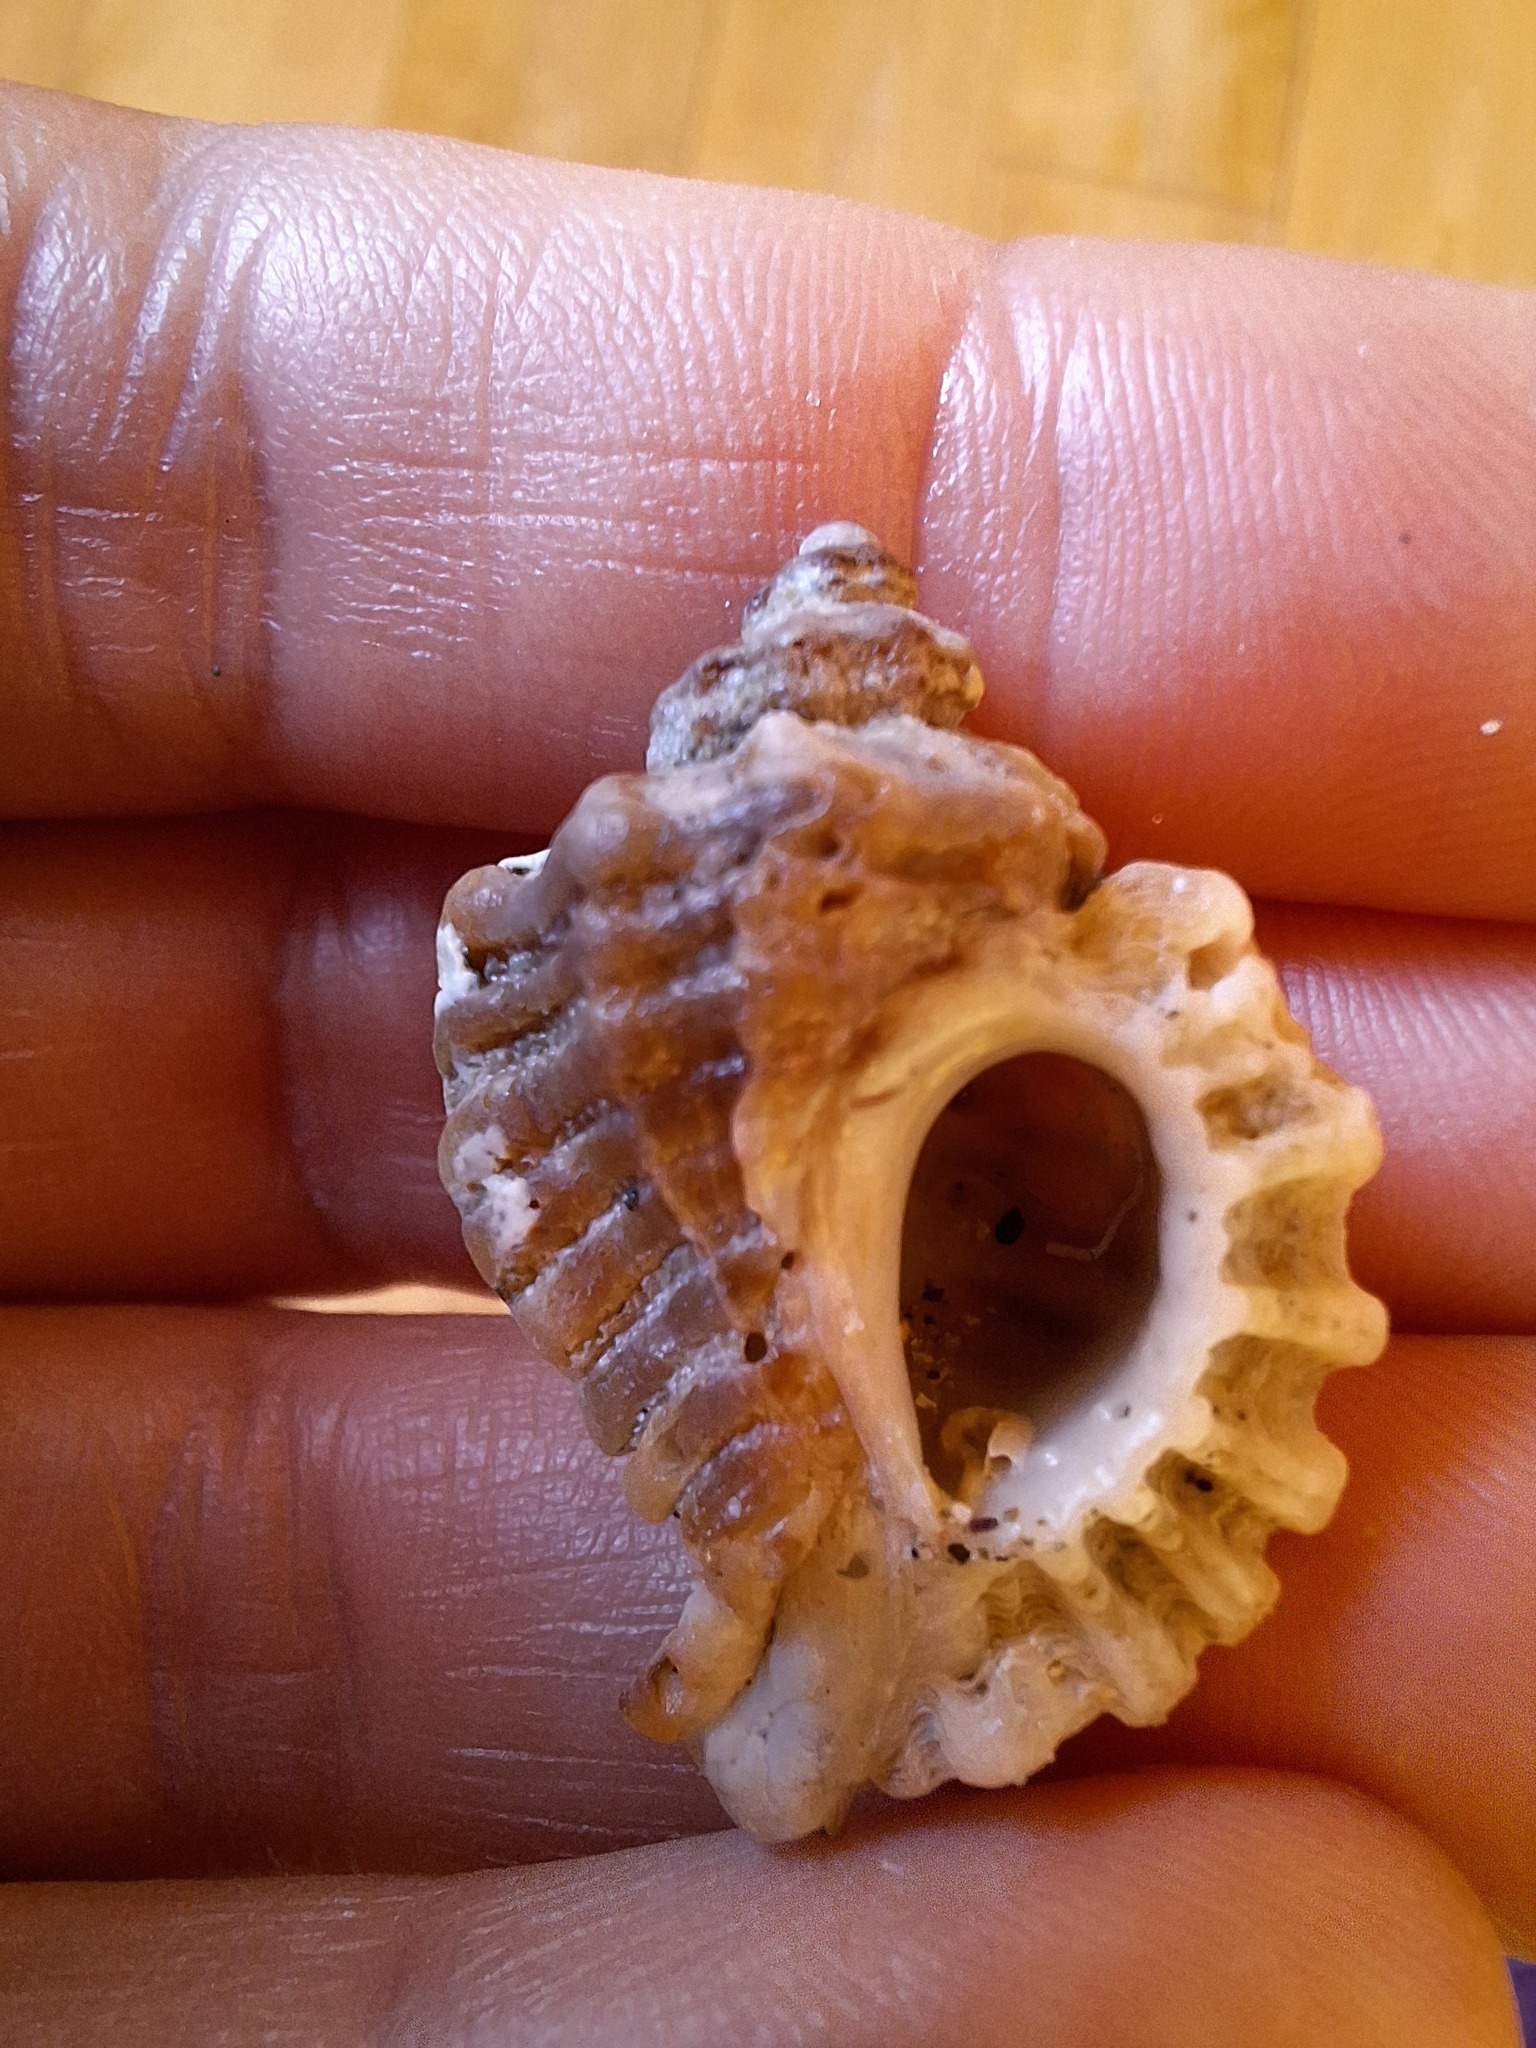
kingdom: Animalia
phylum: Mollusca
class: Gastropoda
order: Neogastropoda
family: Muricidae
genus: Ocenebra
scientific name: Ocenebra erinaceus
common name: European sting winkle
